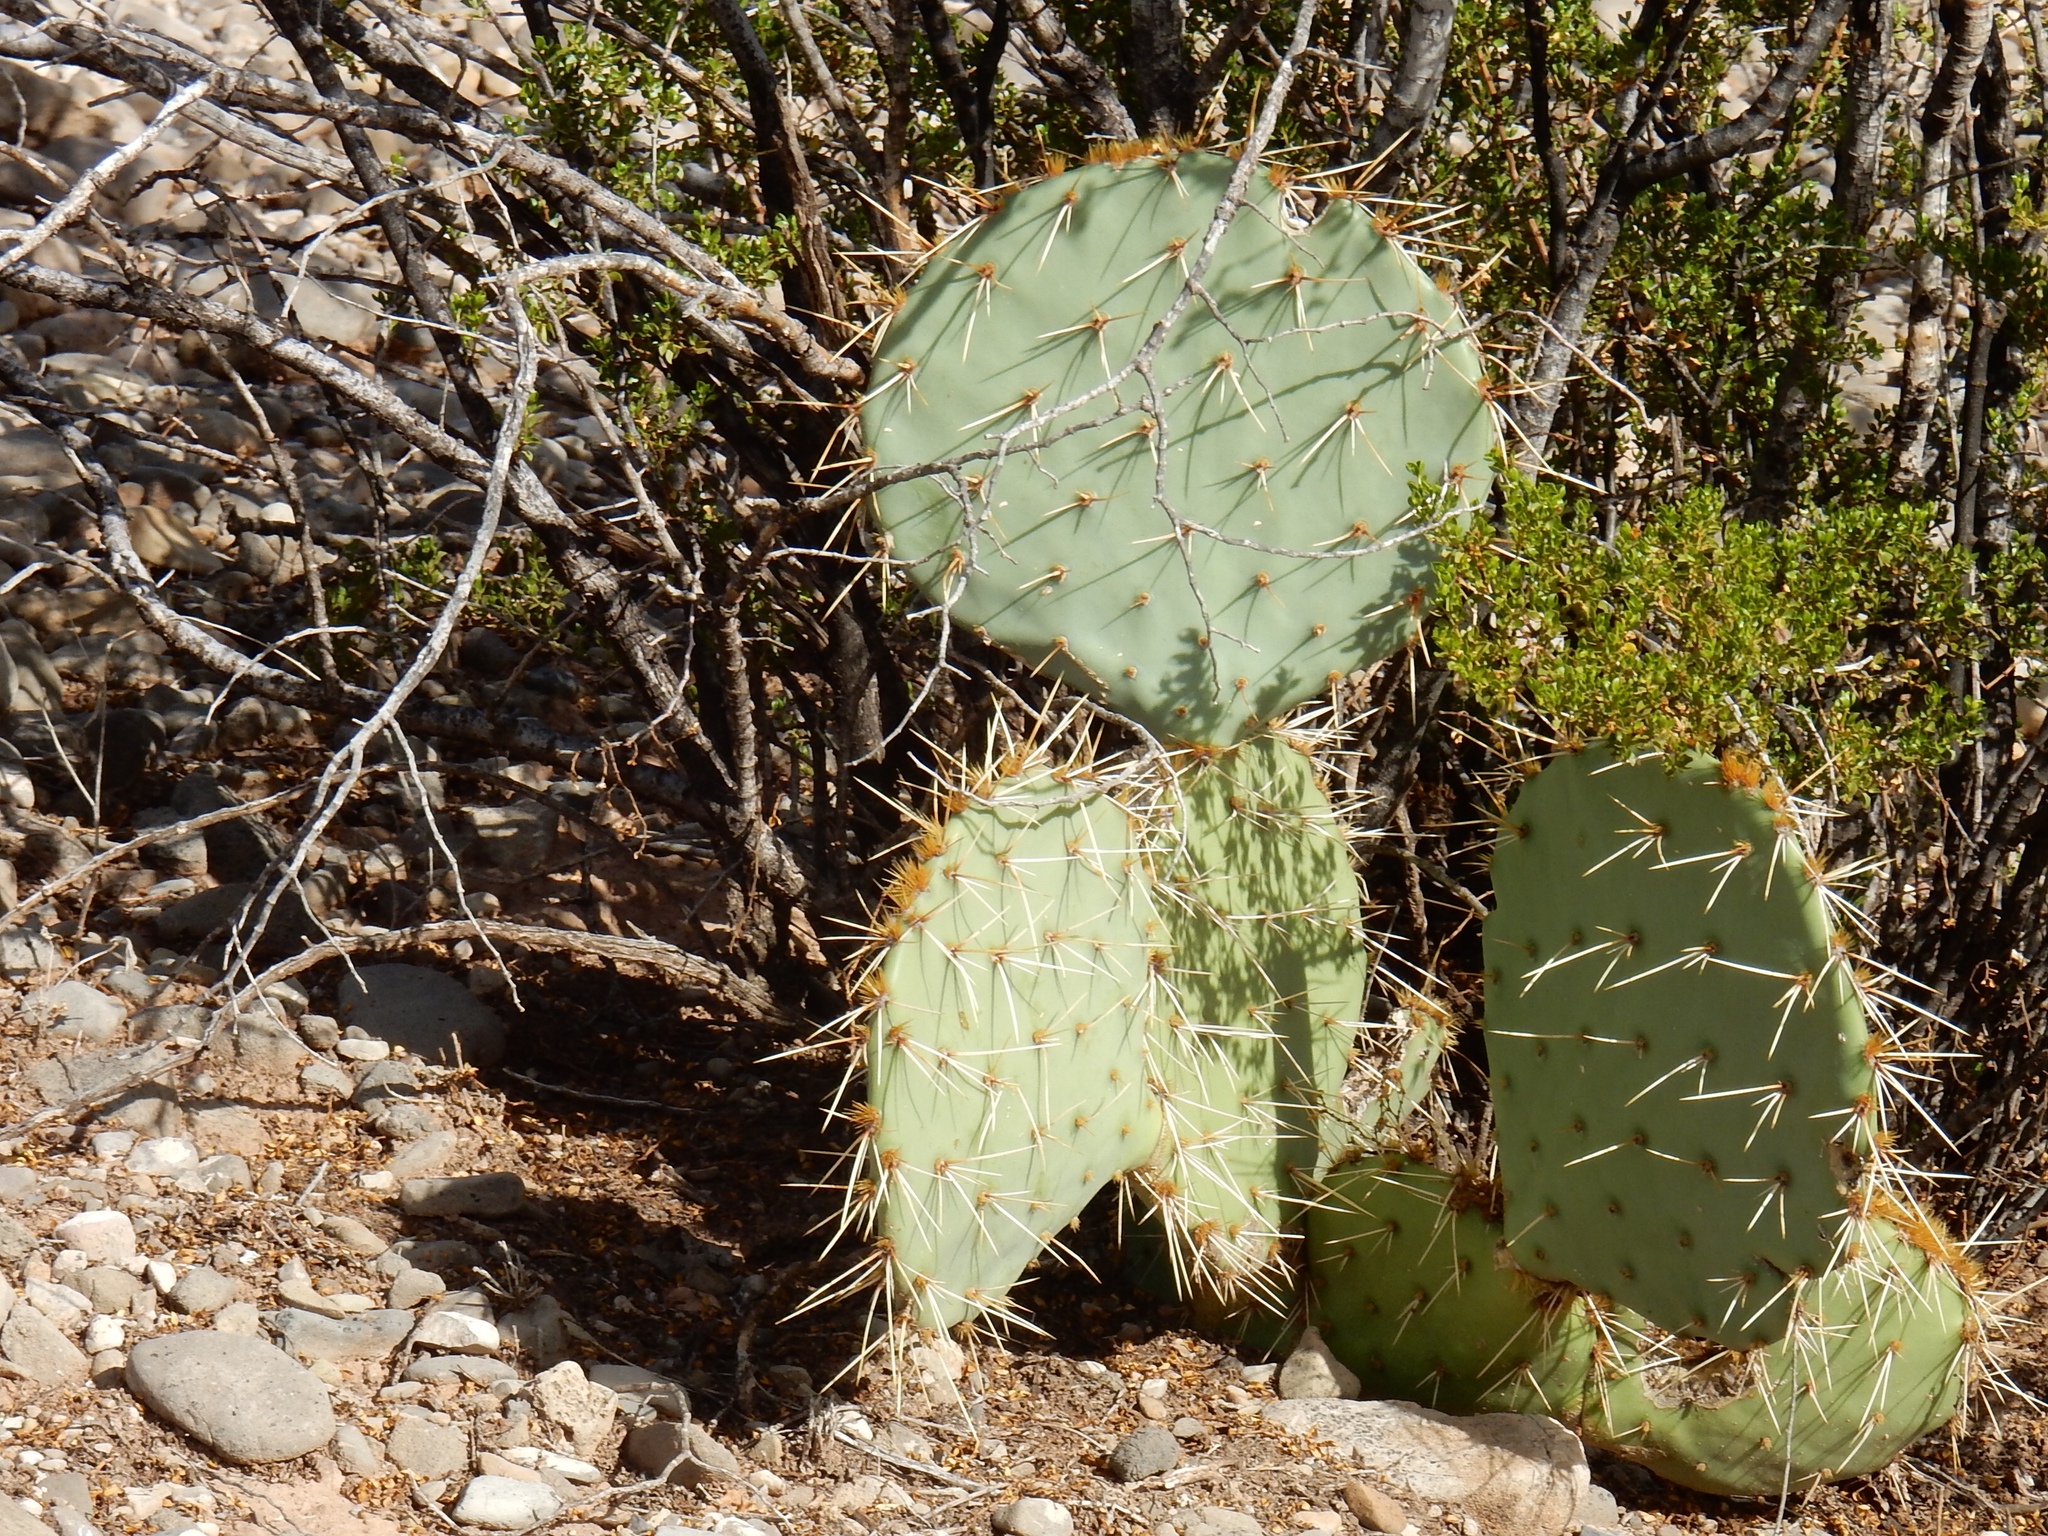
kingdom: Plantae
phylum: Tracheophyta
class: Magnoliopsida
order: Caryophyllales
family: Cactaceae
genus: Opuntia
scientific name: Opuntia engelmannii
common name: Cactus-apple
